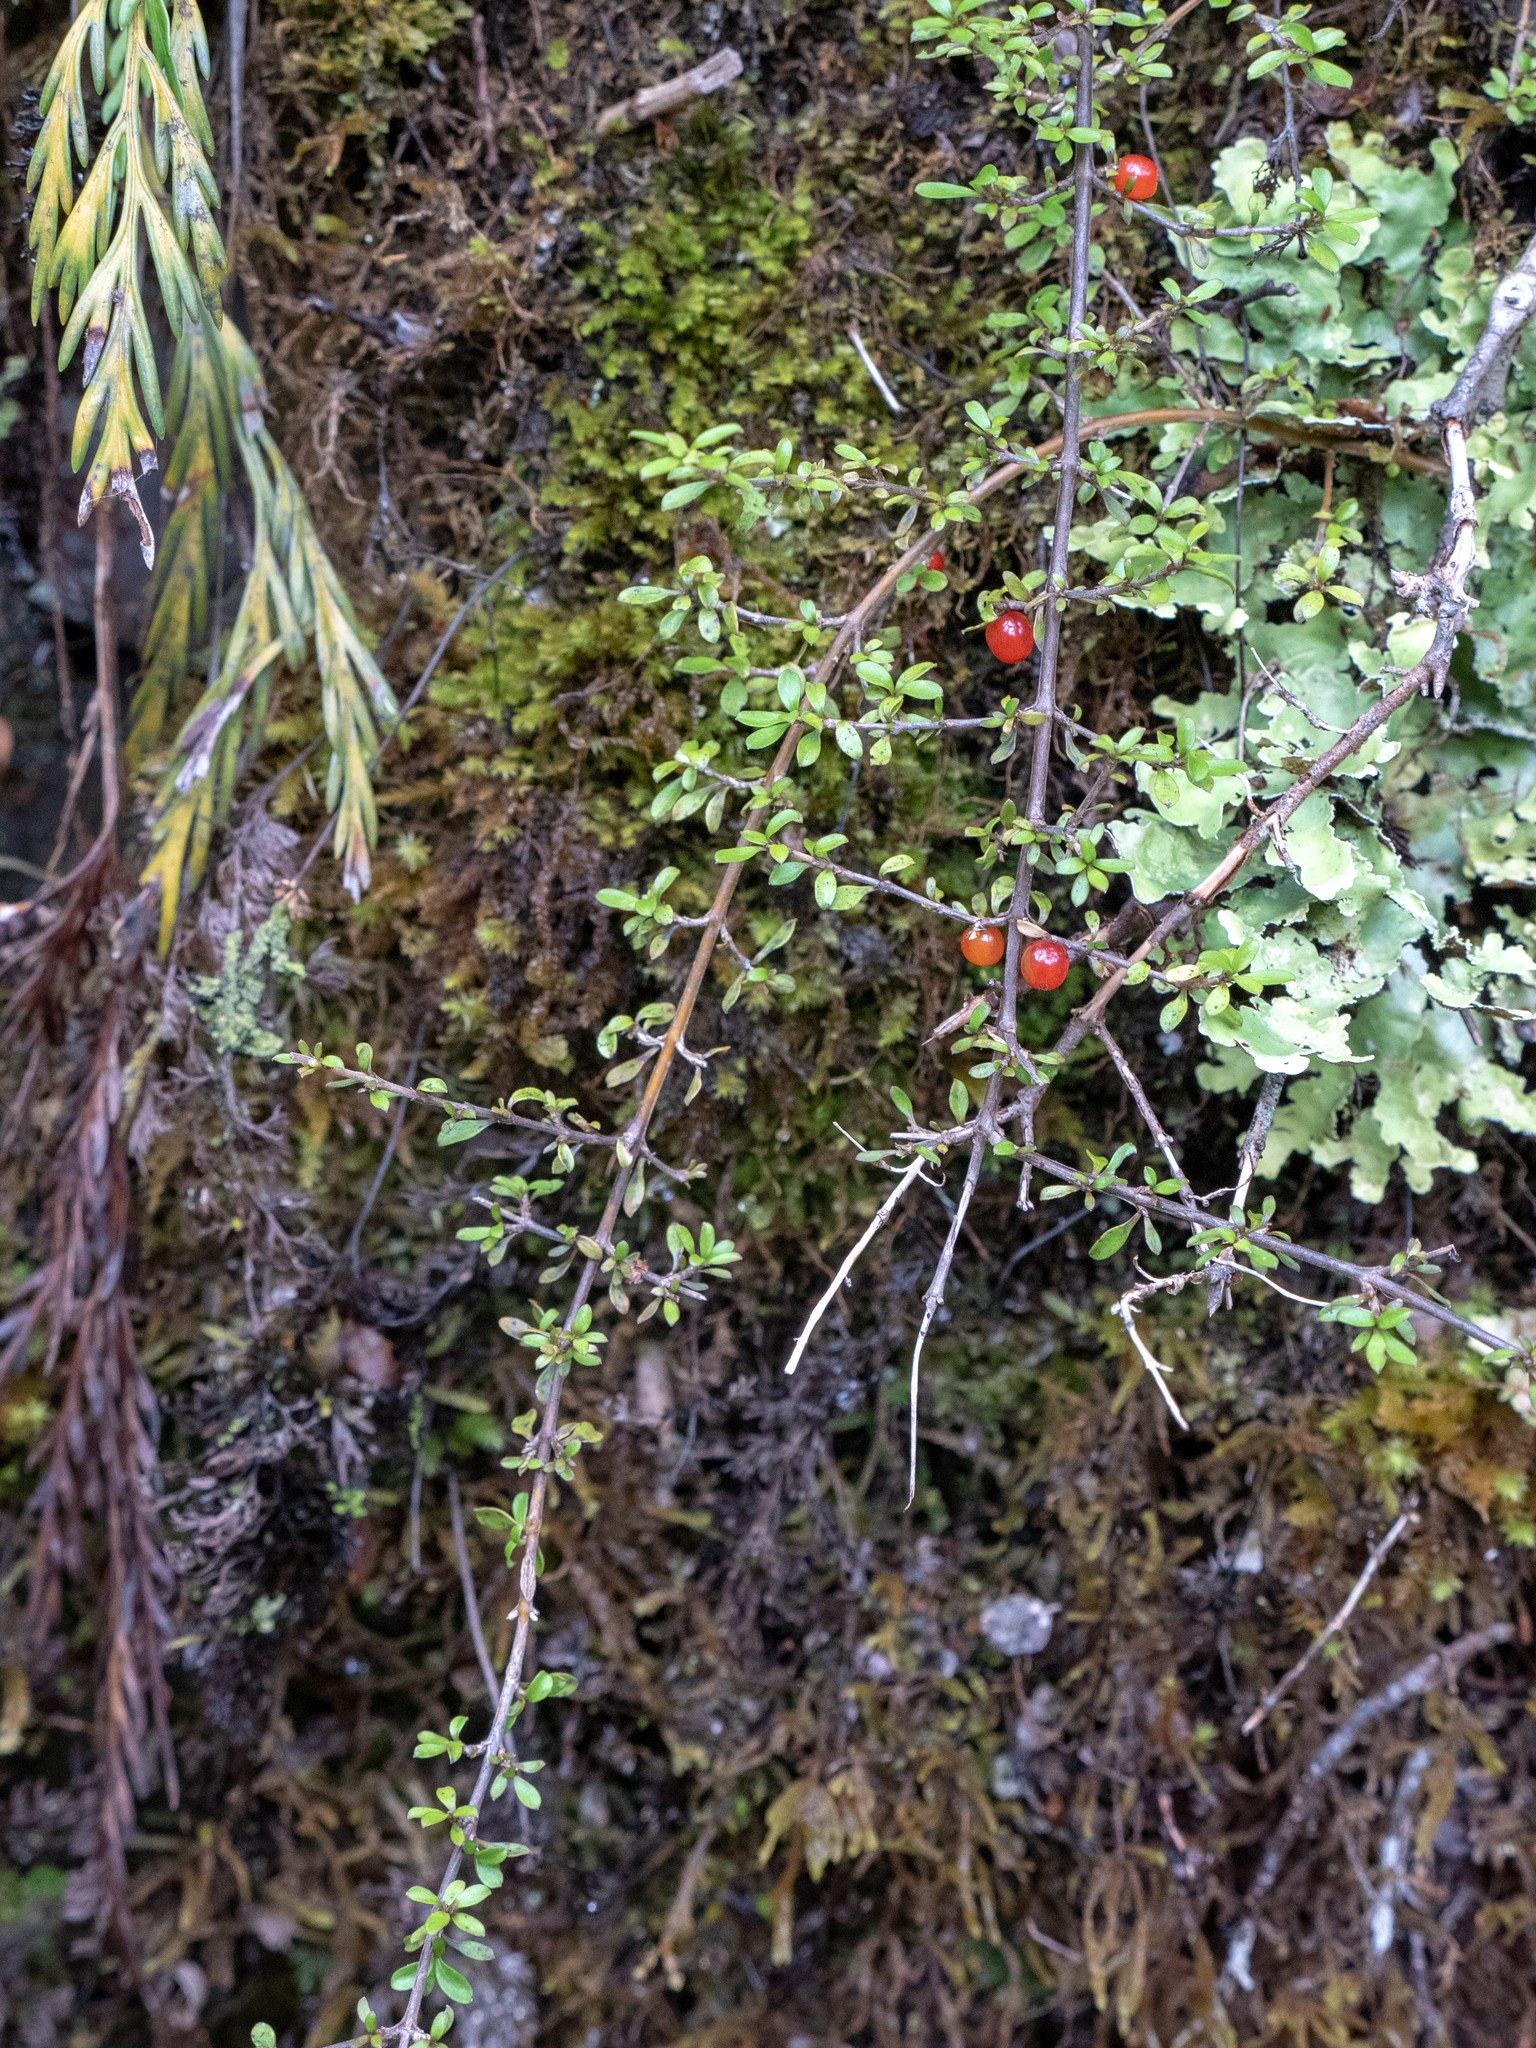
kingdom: Plantae
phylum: Tracheophyta
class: Magnoliopsida
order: Gentianales
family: Rubiaceae
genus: Coprosma
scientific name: Coprosma depressa
